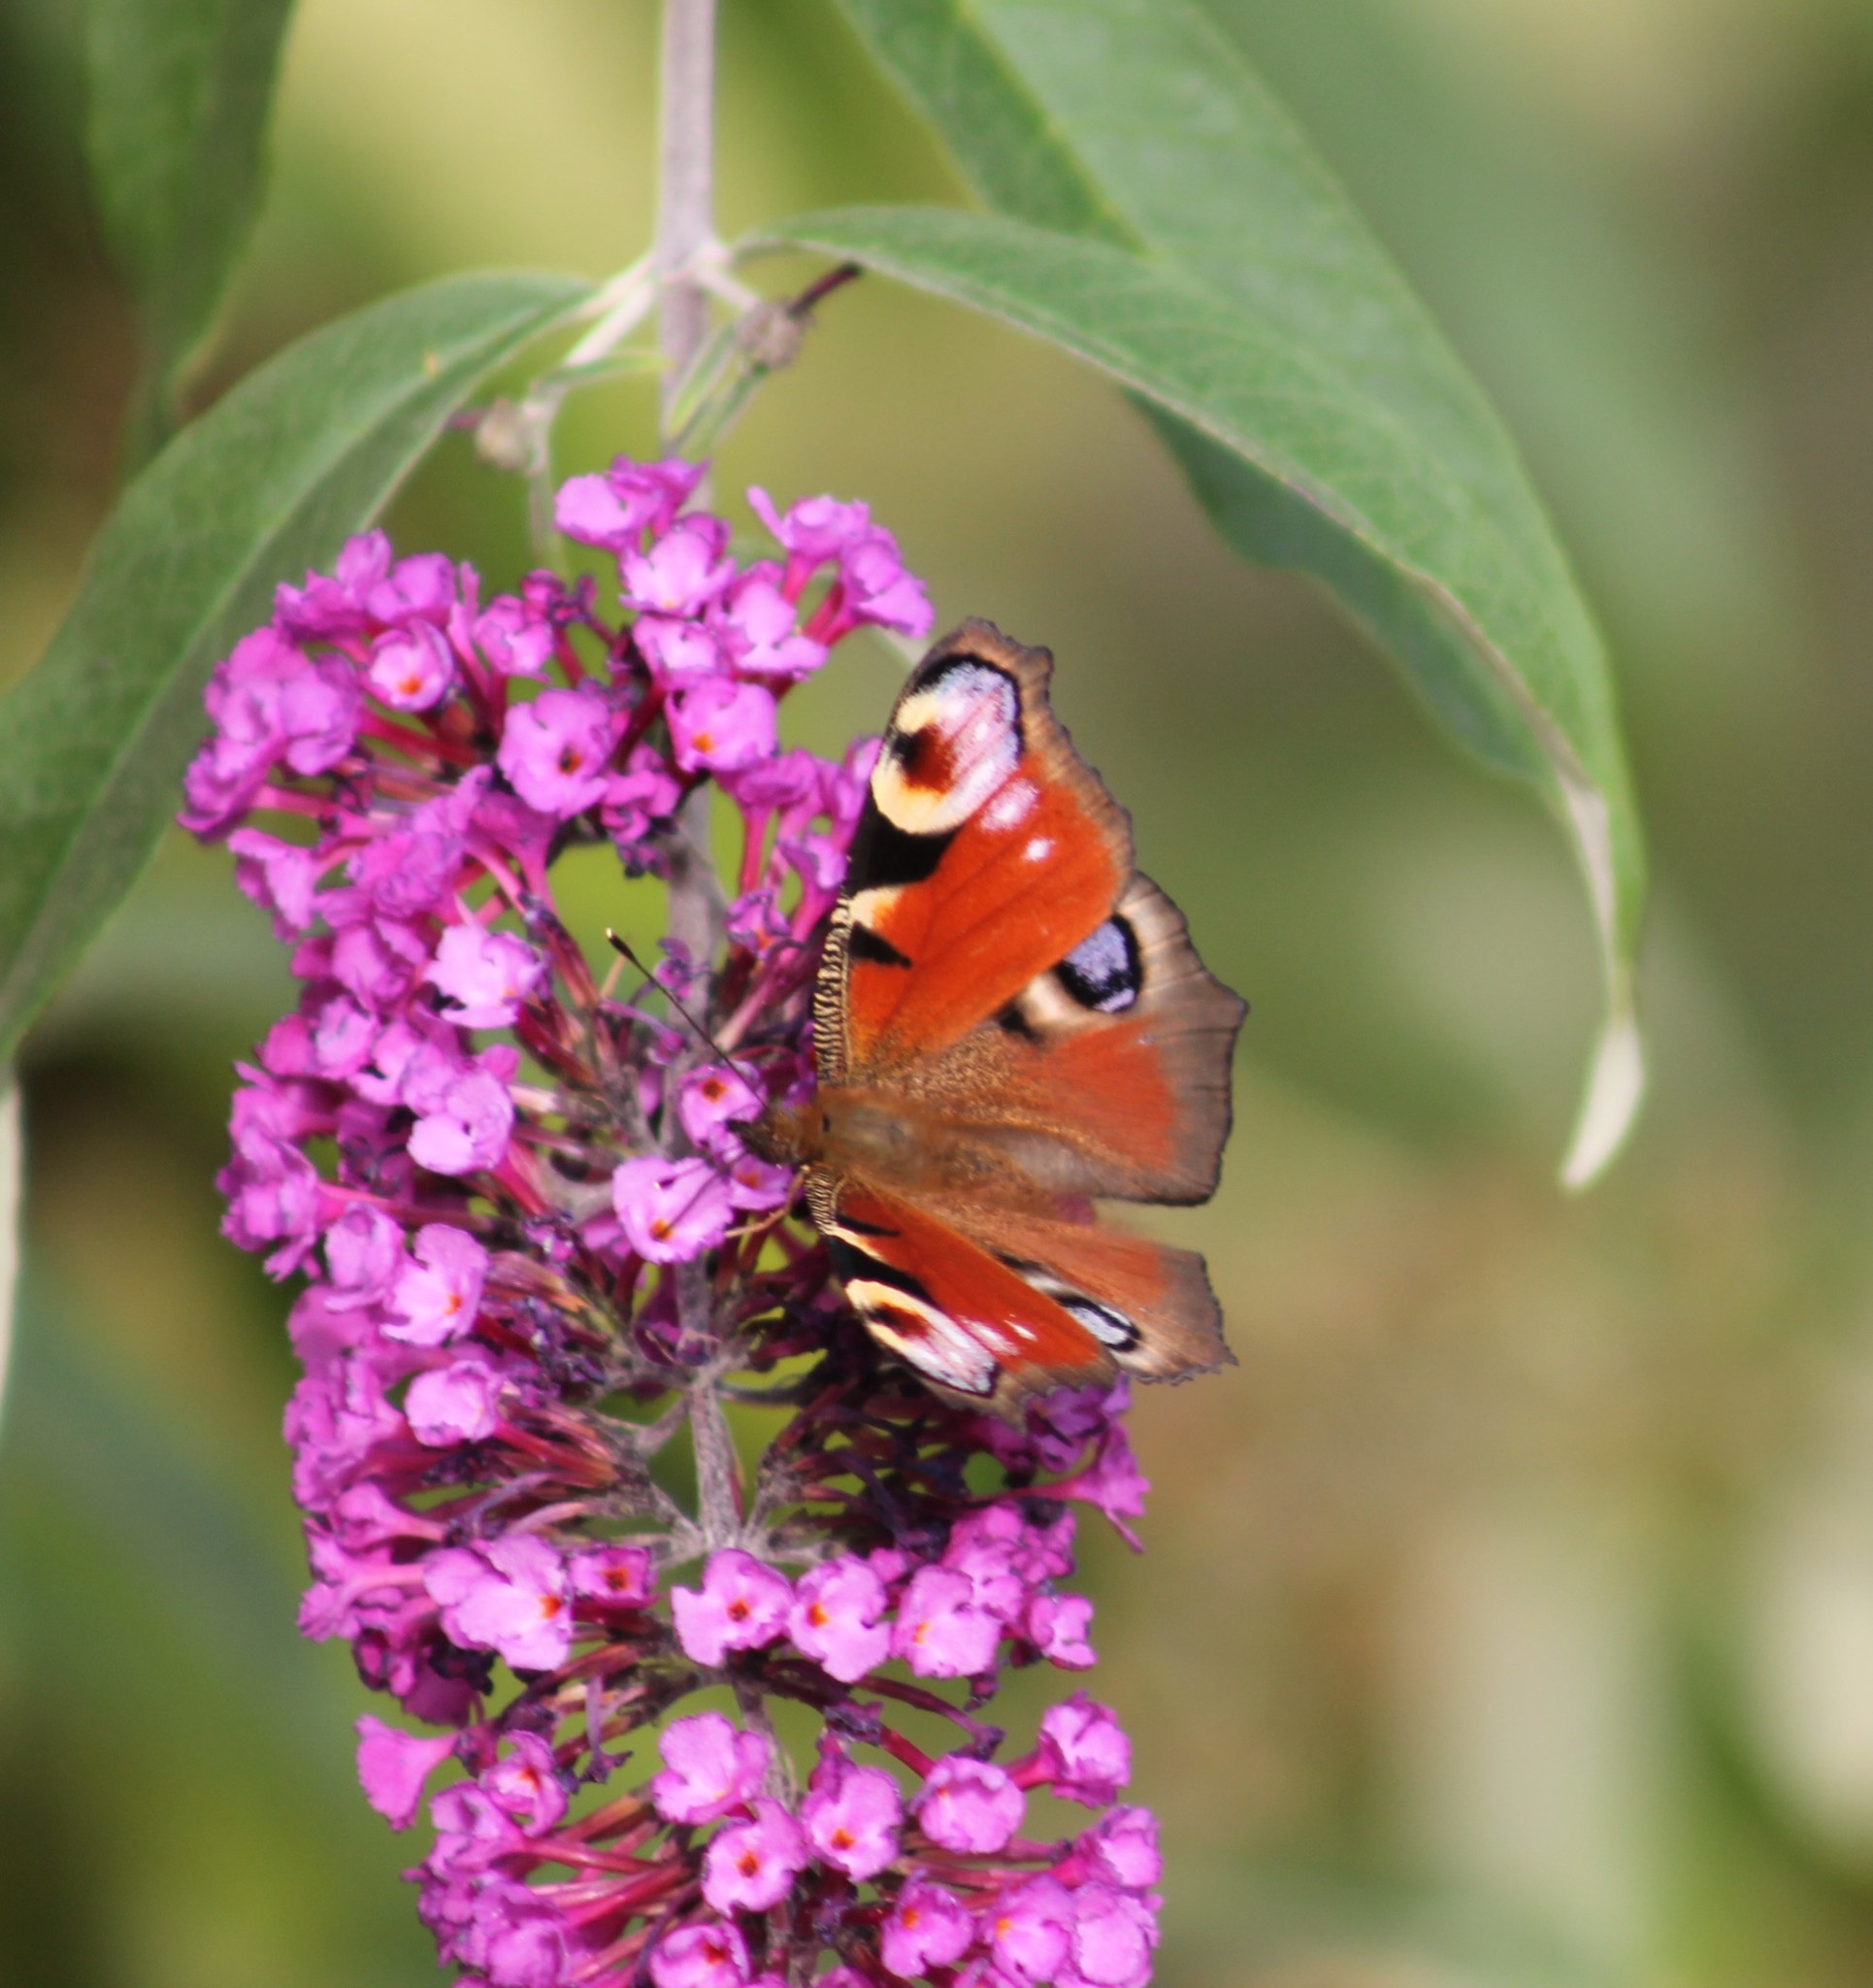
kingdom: Animalia
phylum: Arthropoda
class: Insecta
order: Lepidoptera
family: Nymphalidae
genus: Aglais
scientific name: Aglais io
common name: Peacock
